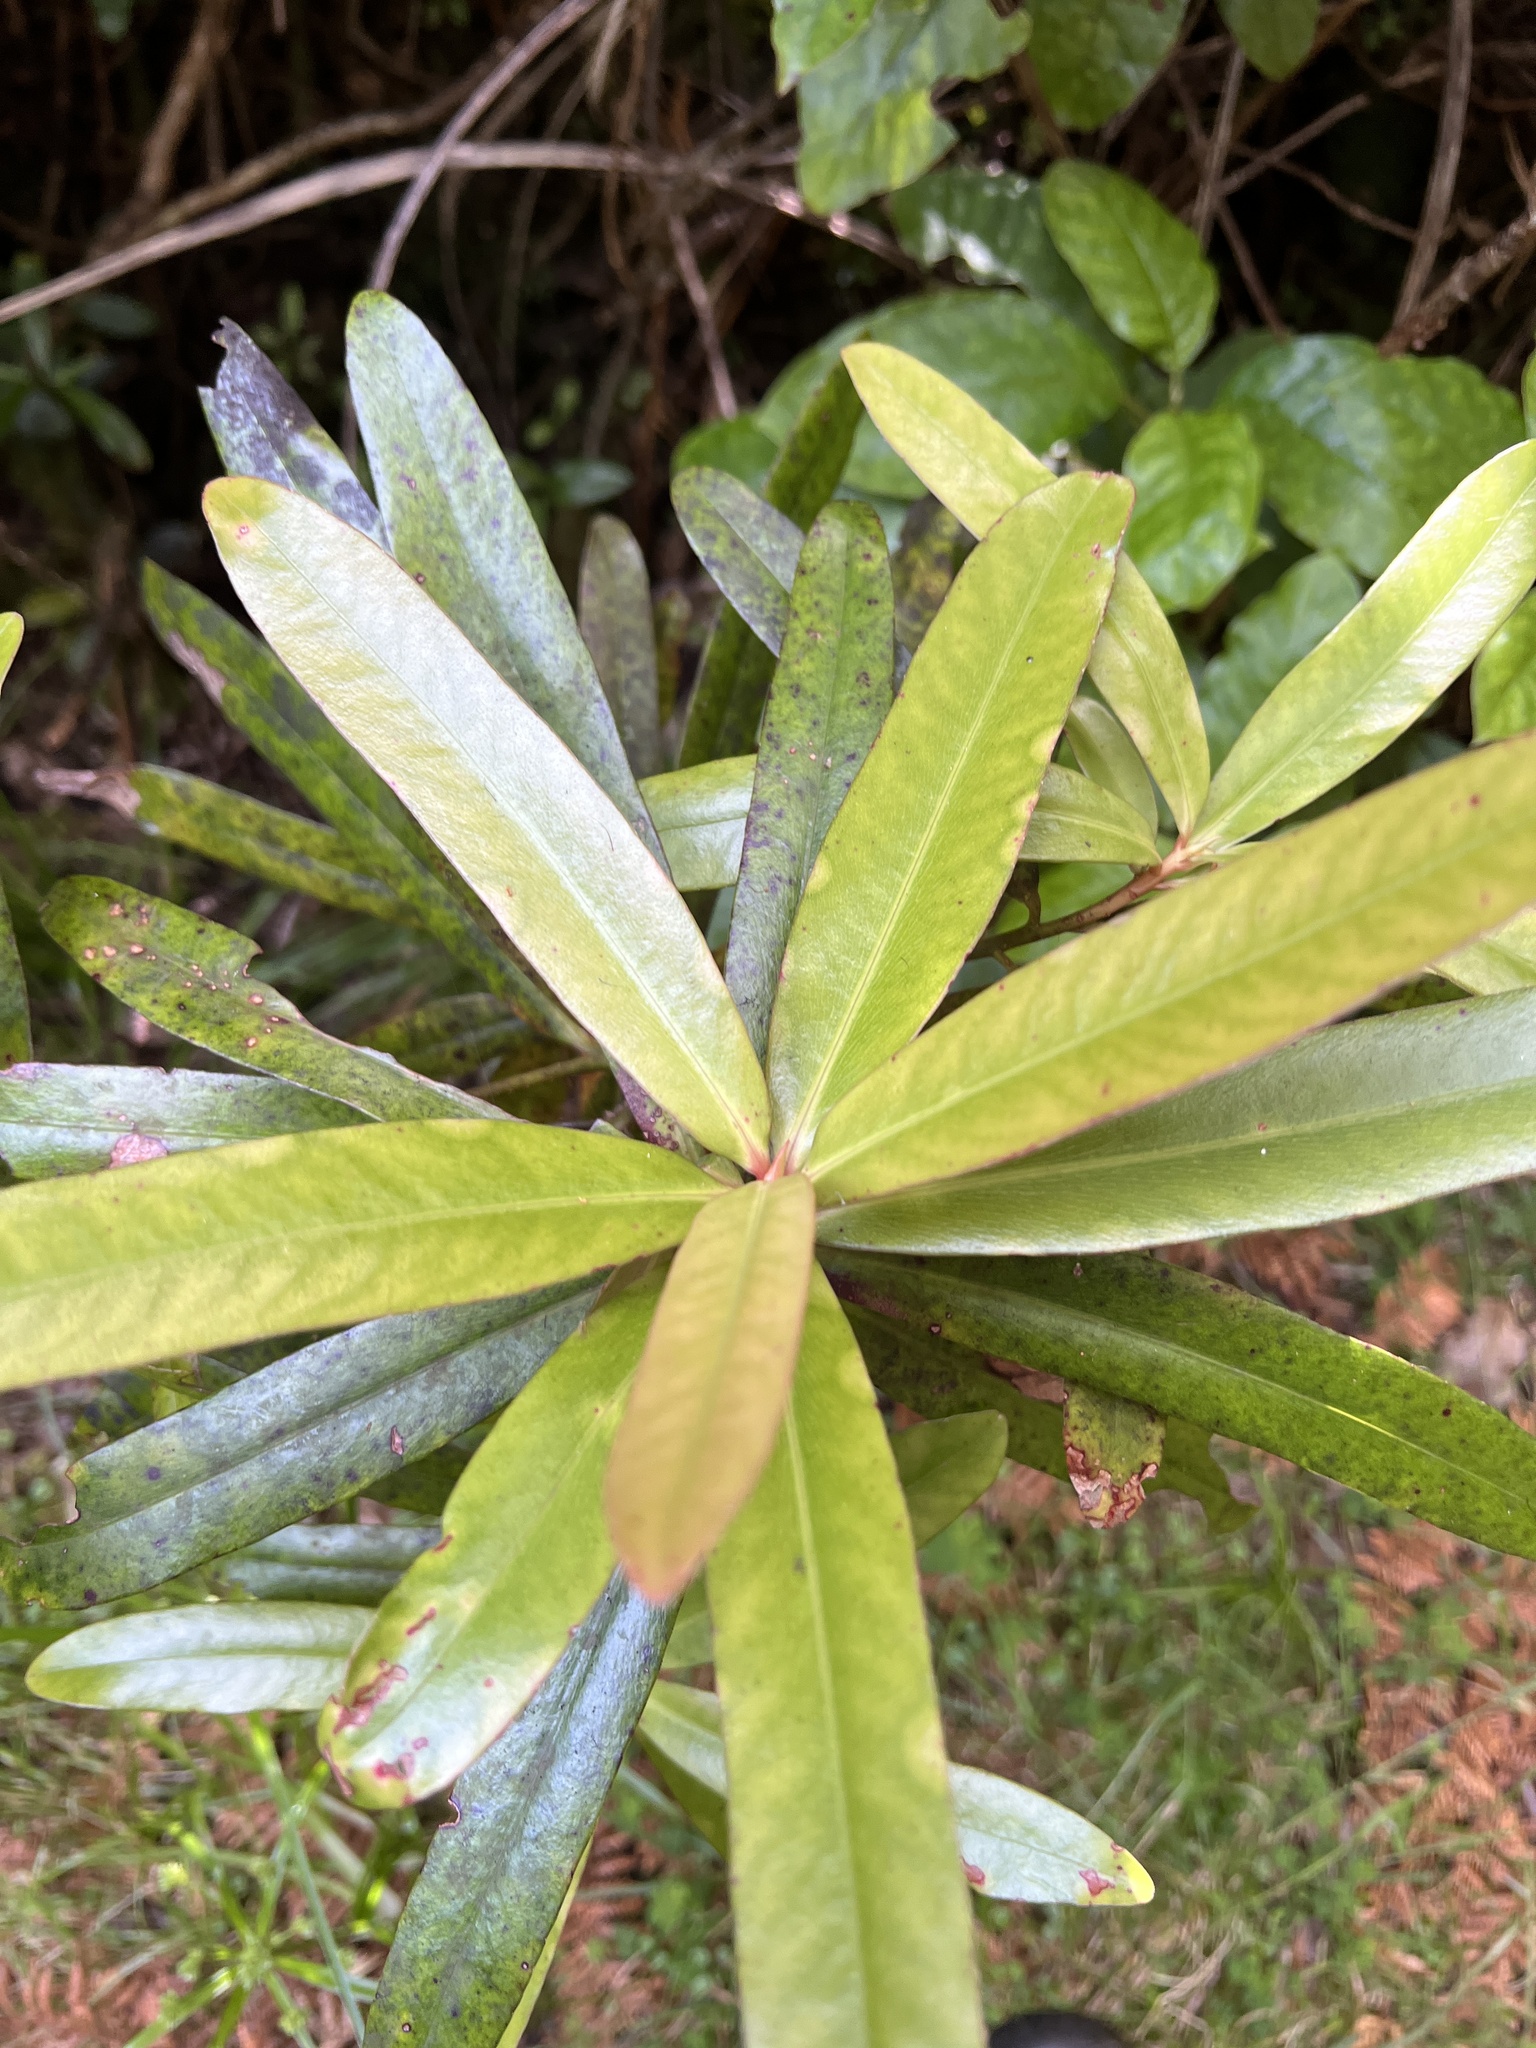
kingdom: Plantae
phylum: Tracheophyta
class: Magnoliopsida
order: Ericales
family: Primulaceae
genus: Myrsine
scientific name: Myrsine salicina
